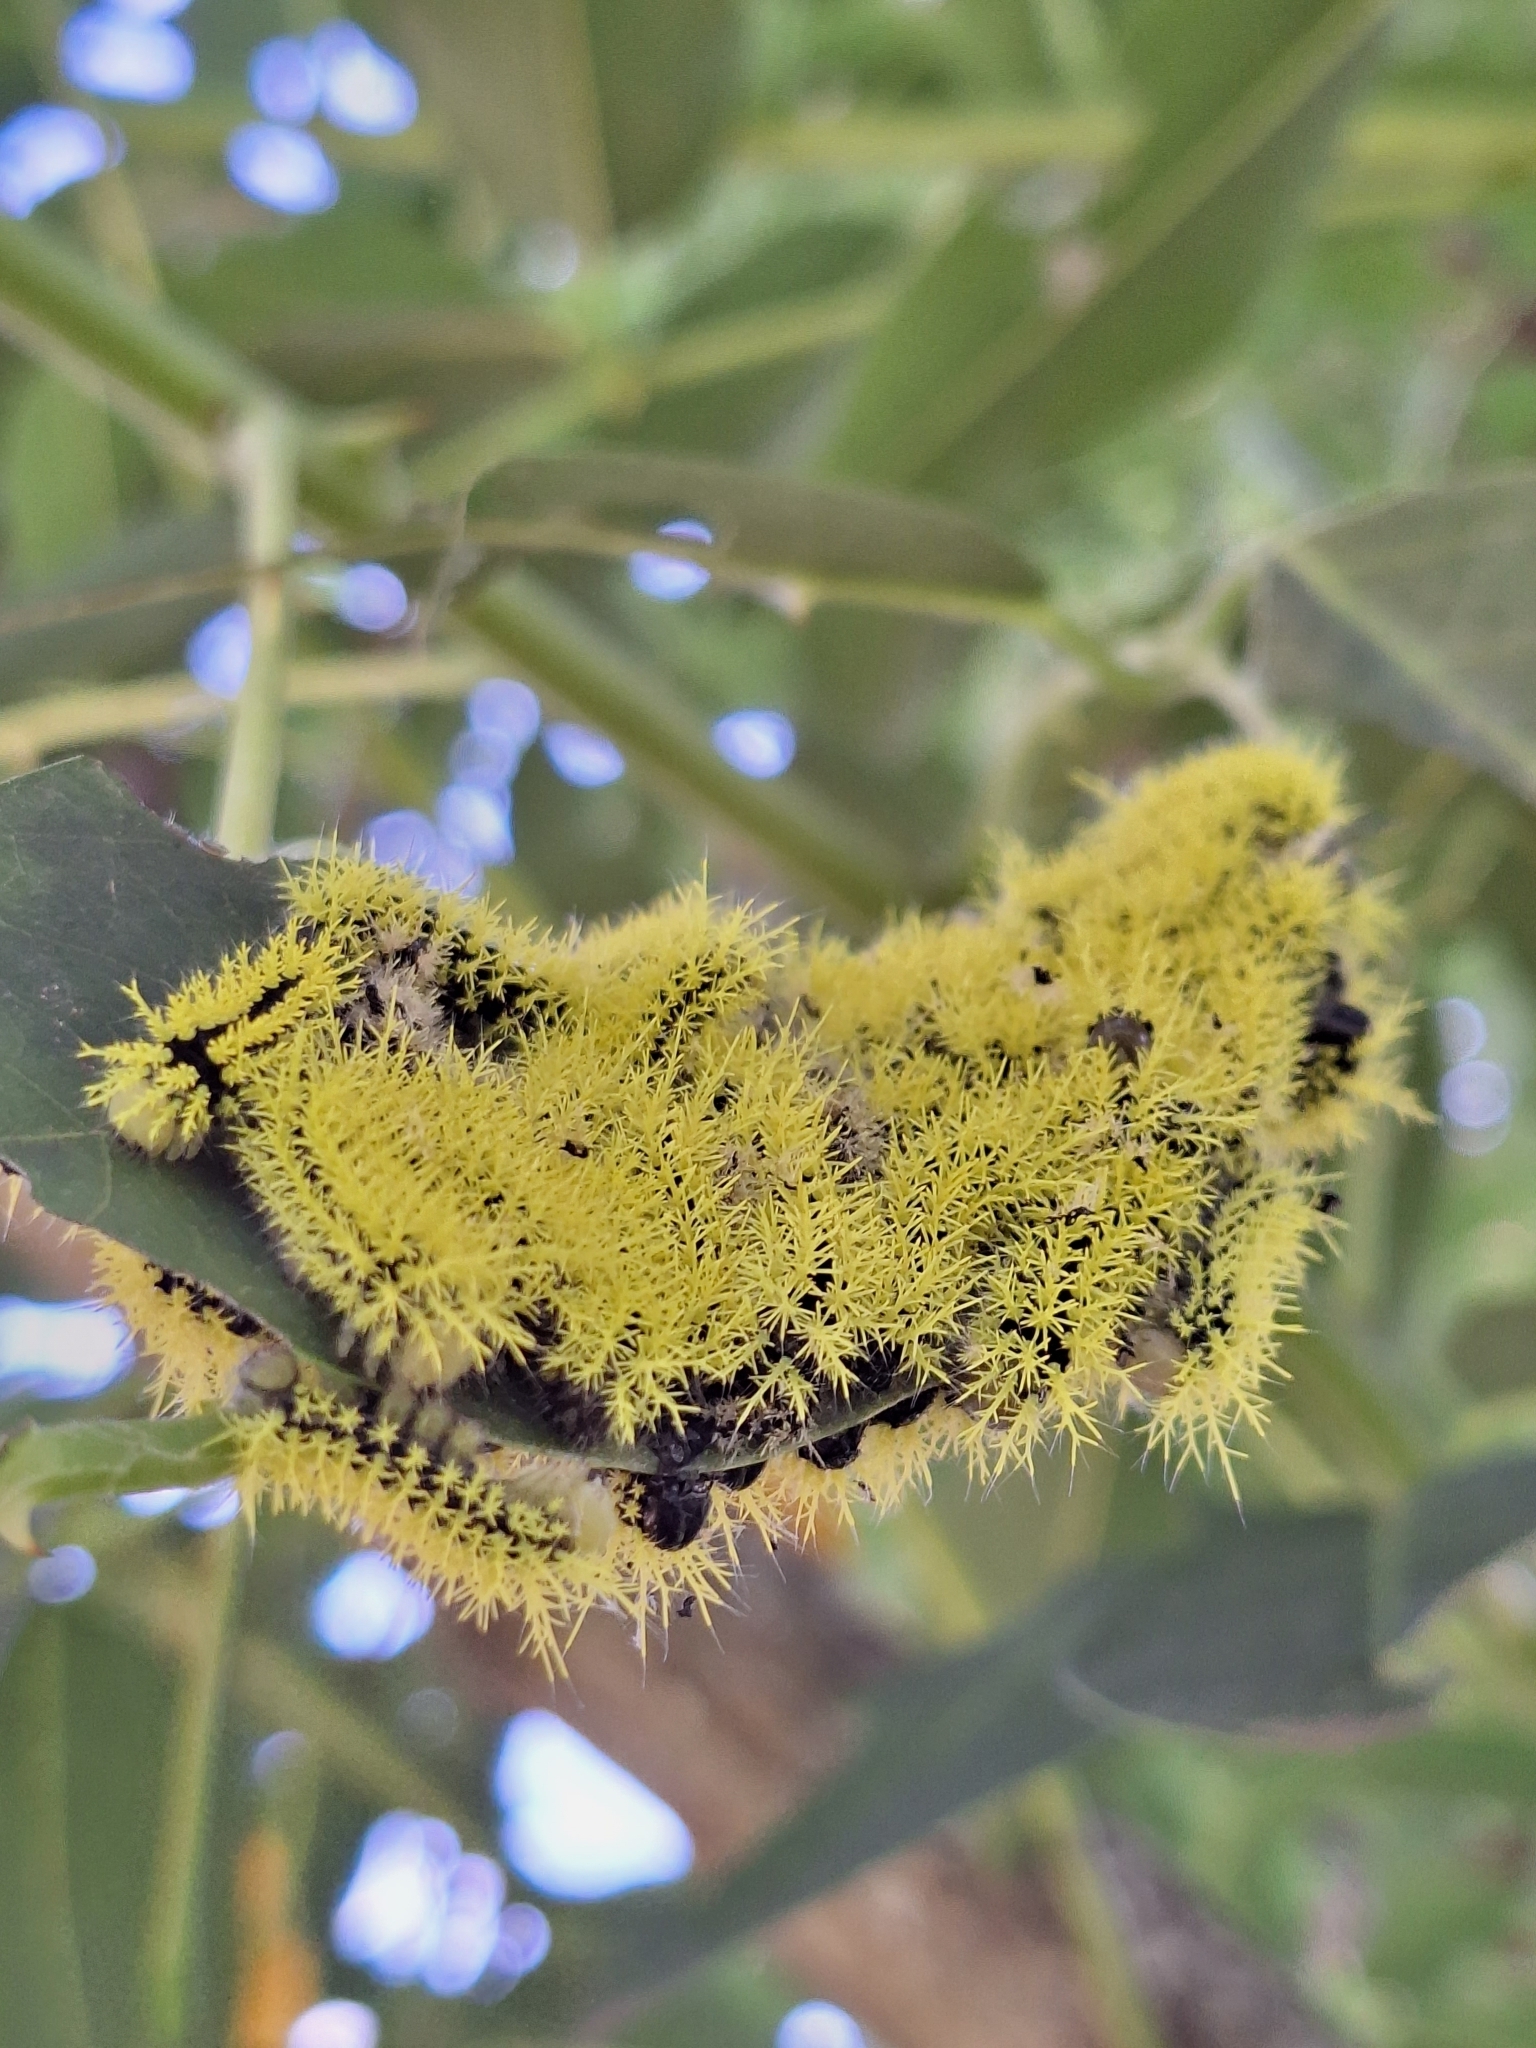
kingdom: Animalia
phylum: Arthropoda
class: Insecta
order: Lepidoptera
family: Saturniidae
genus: Leucanella
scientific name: Leucanella viridescens
